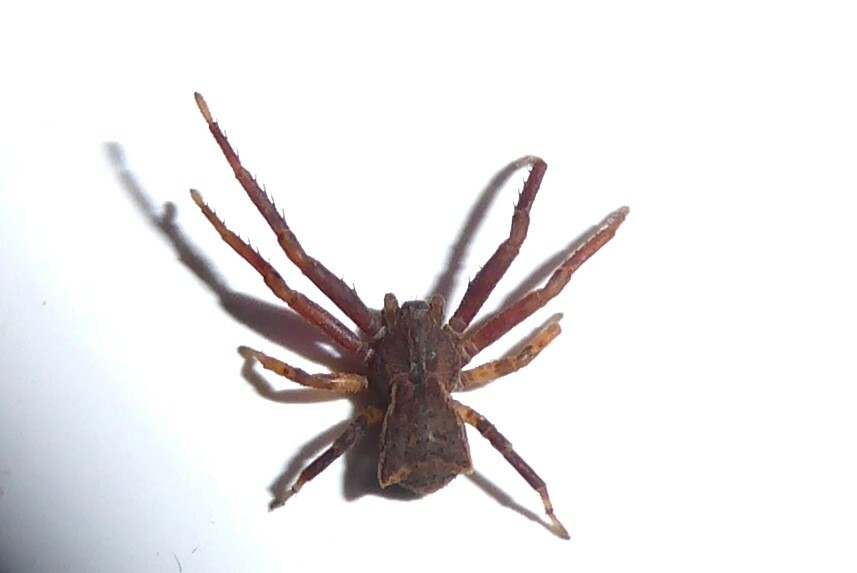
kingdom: Animalia
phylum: Arthropoda
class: Arachnida
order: Araneae
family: Thomisidae
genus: Sidymella
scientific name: Sidymella angularis
